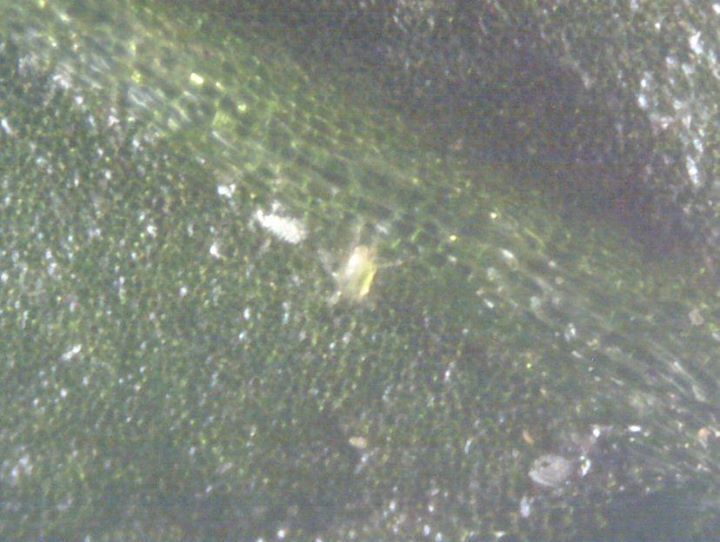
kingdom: Animalia
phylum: Arthropoda
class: Arachnida
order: Trombidiformes
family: Tarsonemidae
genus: Polyphagotarsonemus
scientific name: Polyphagotarsonemus latus
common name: Mite
